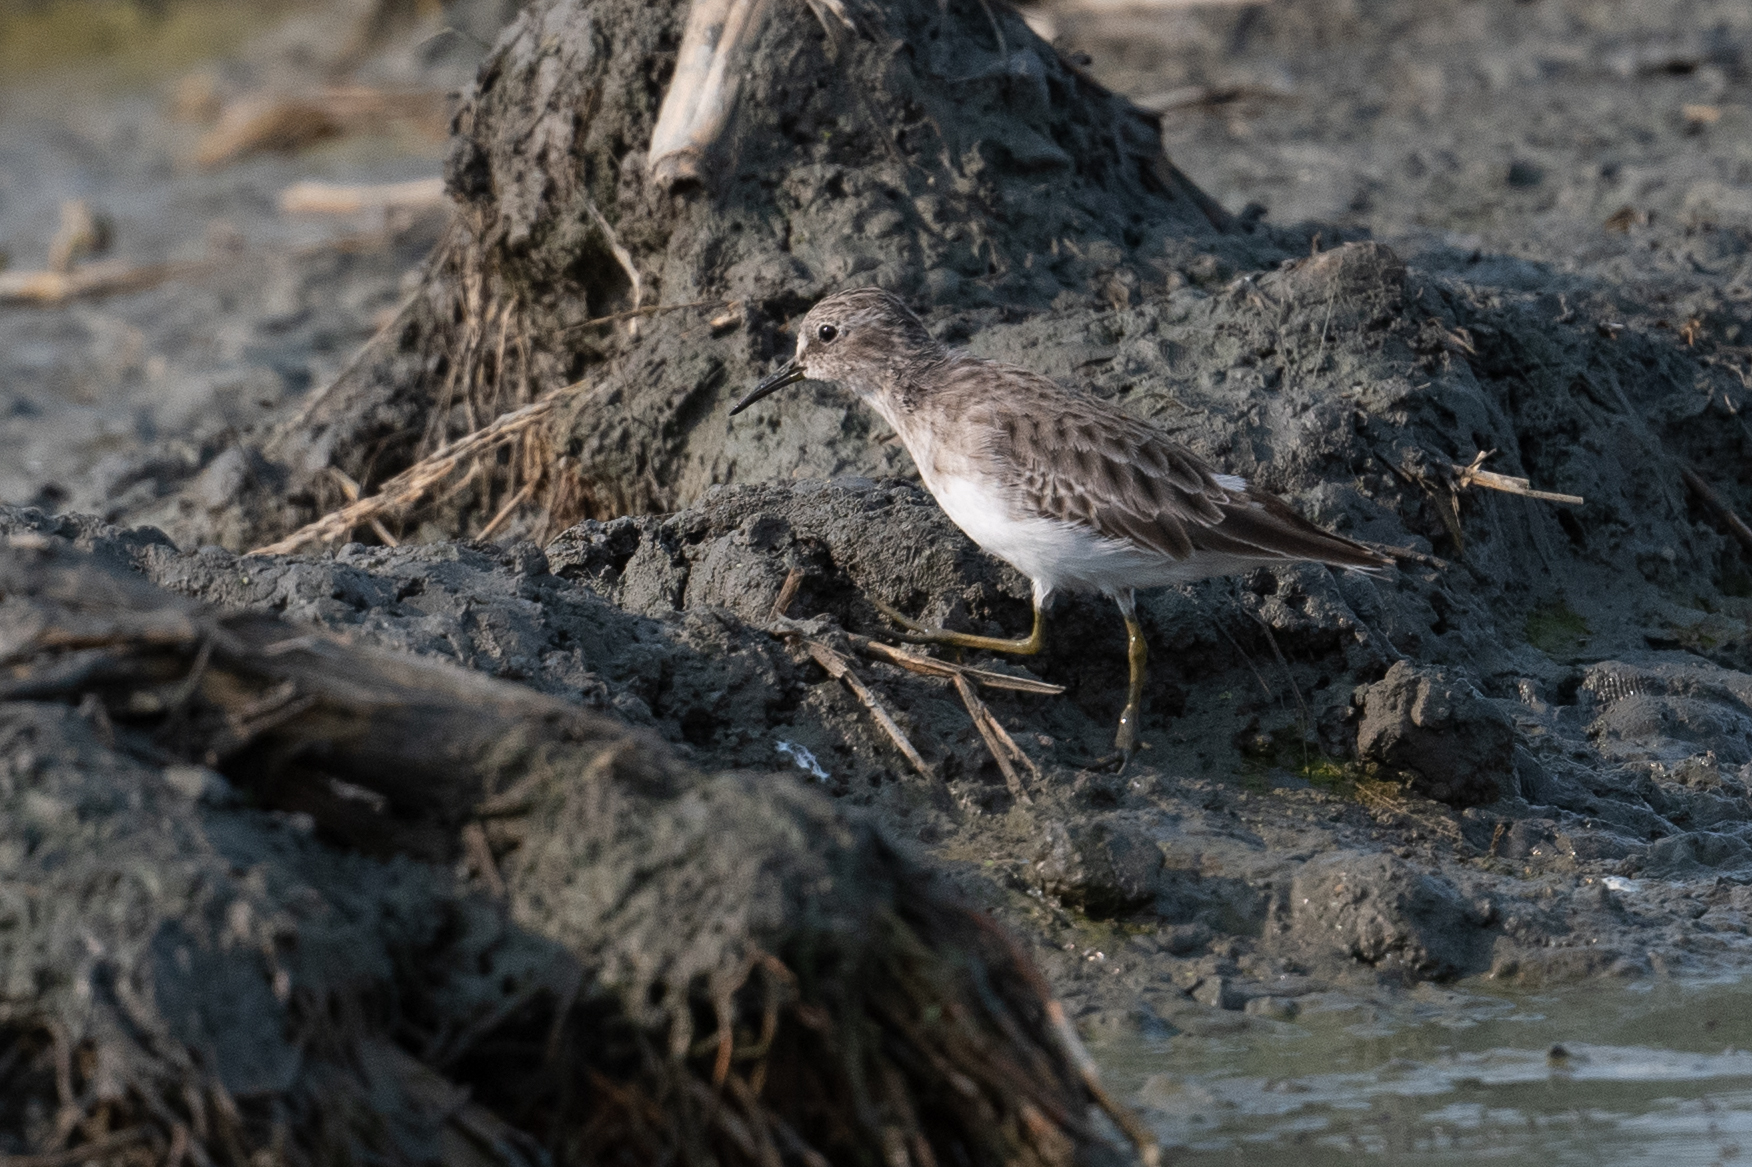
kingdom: Animalia
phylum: Chordata
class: Aves
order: Charadriiformes
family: Scolopacidae
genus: Calidris
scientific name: Calidris minutilla
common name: Least sandpiper
